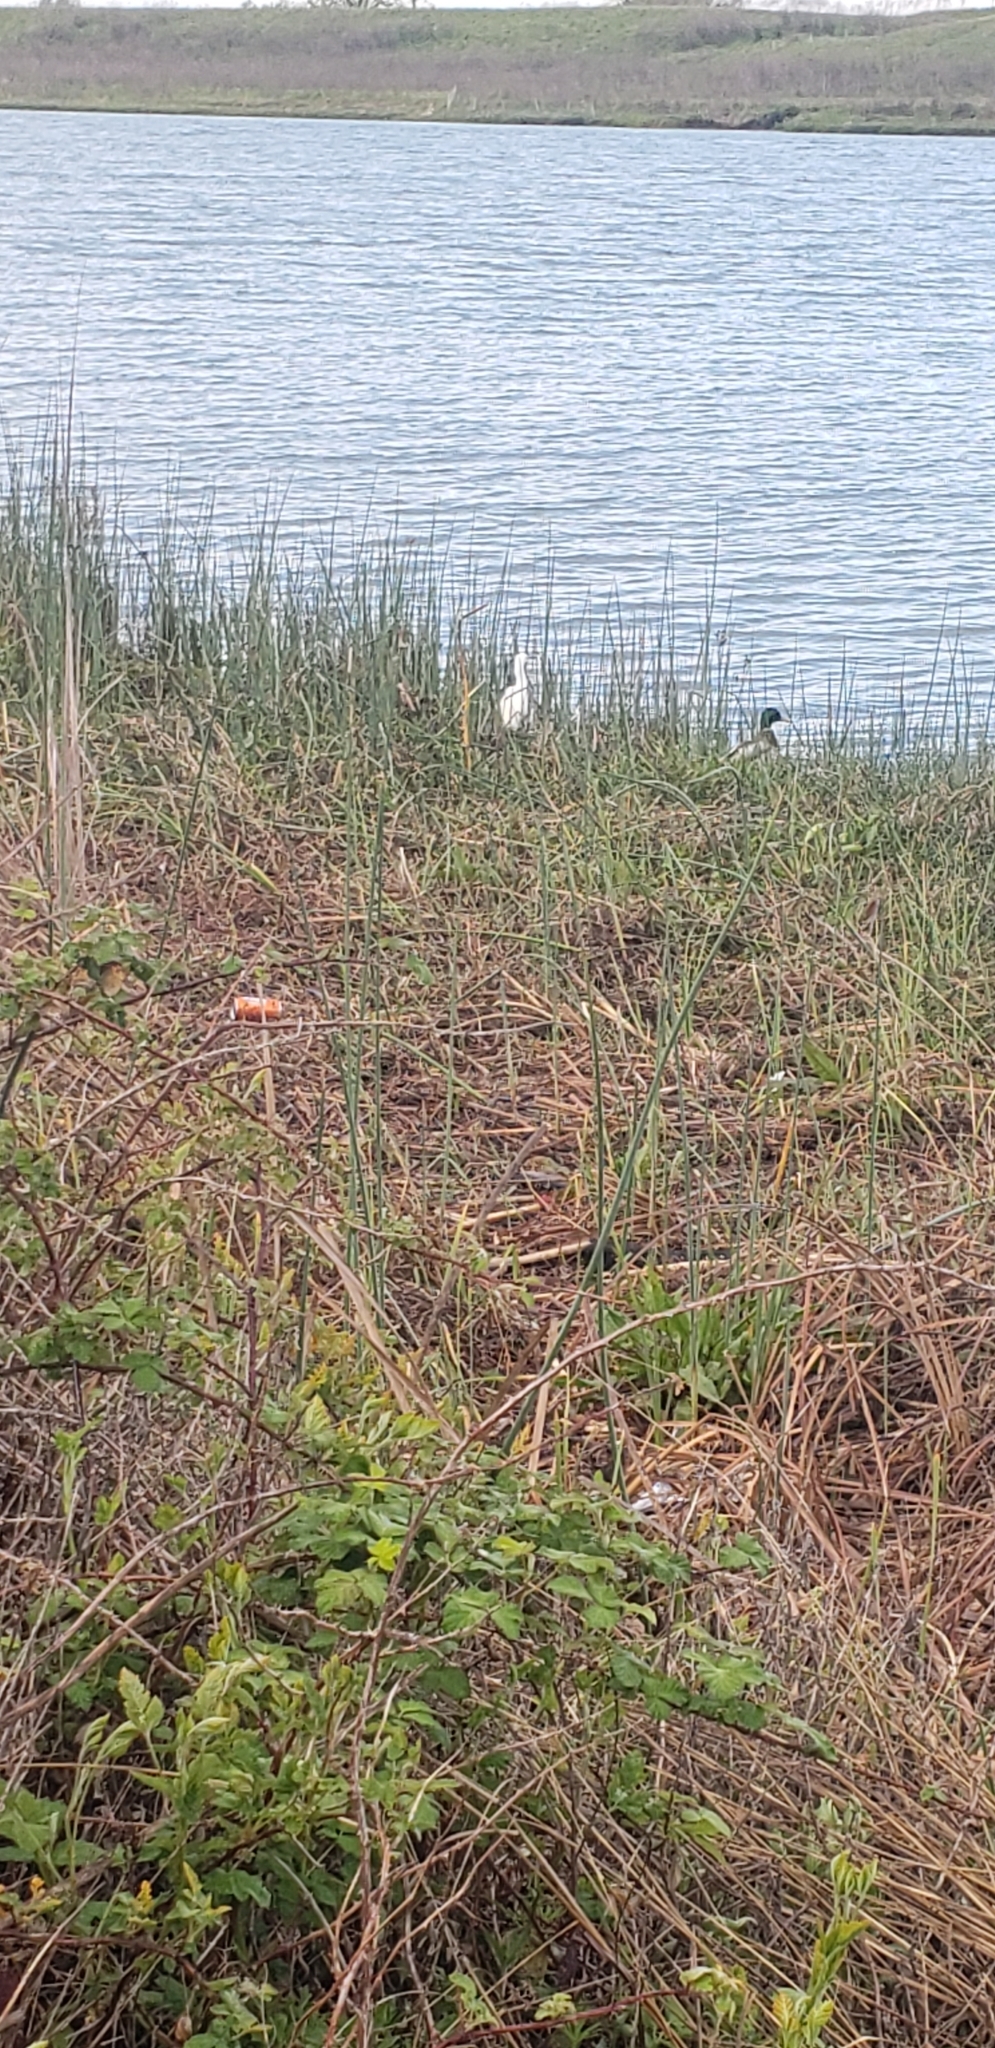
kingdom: Animalia
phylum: Chordata
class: Aves
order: Pelecaniformes
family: Ardeidae
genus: Egretta
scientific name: Egretta thula
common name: Snowy egret
